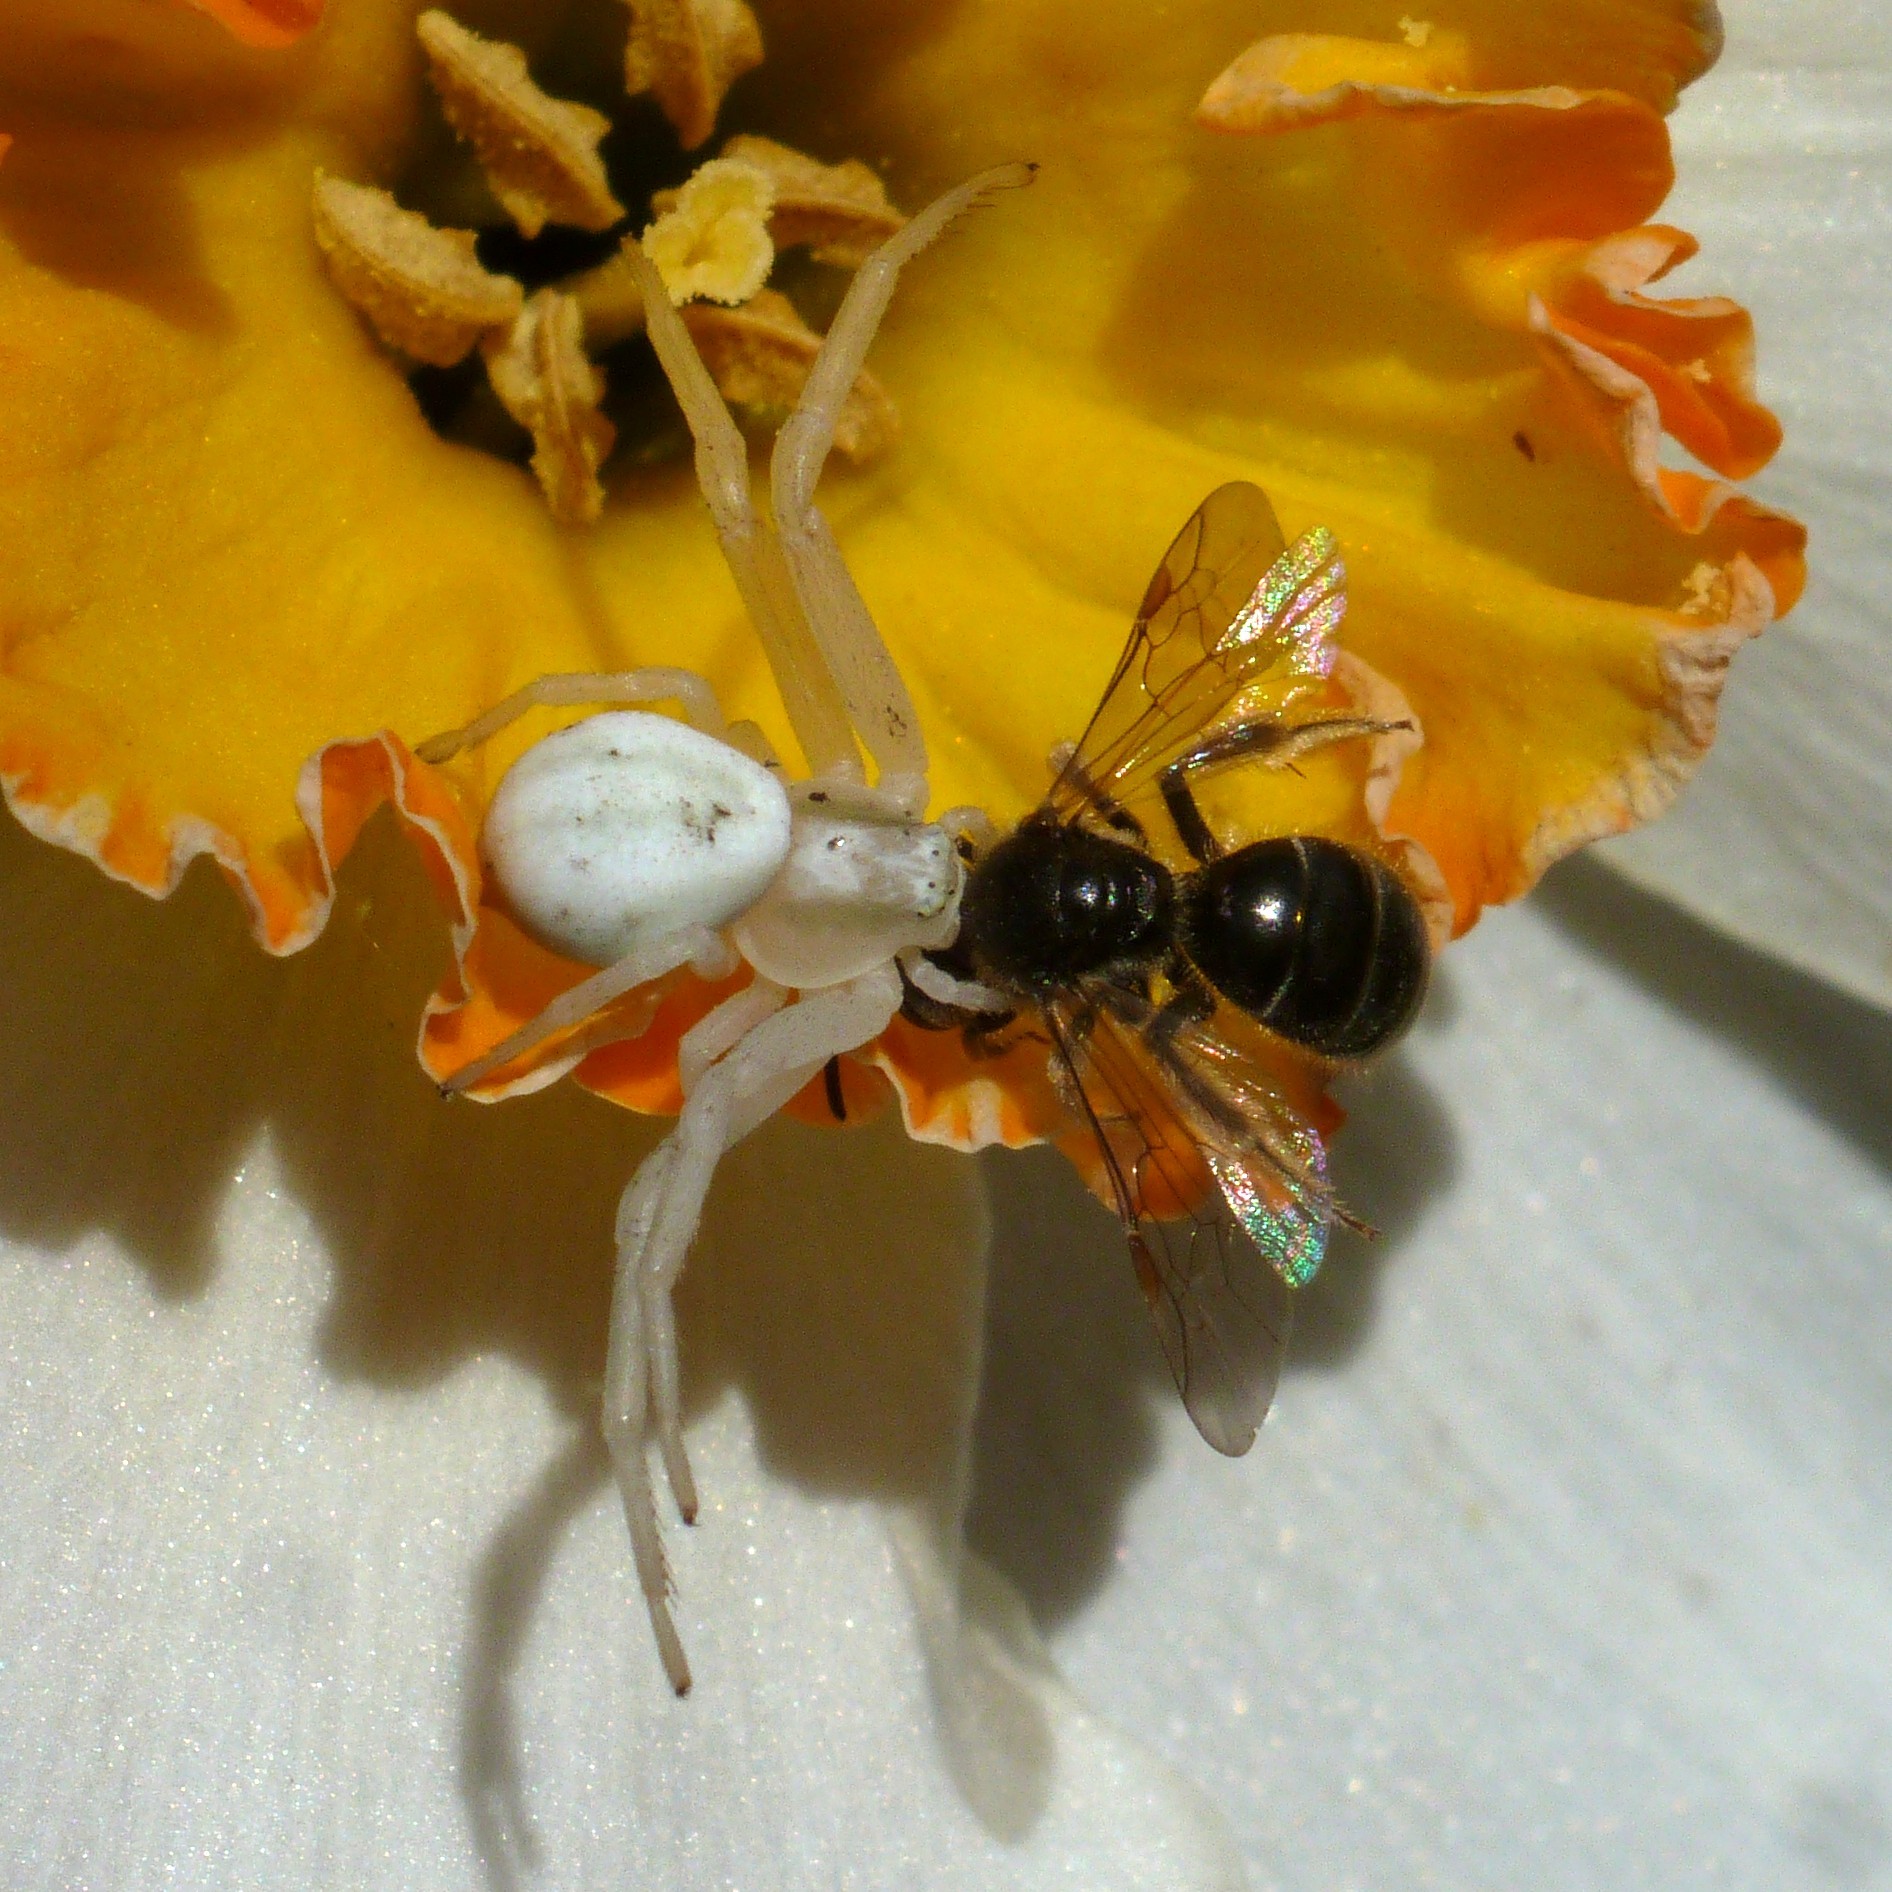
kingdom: Animalia
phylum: Arthropoda
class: Arachnida
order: Araneae
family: Thomisidae
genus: Misumena
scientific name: Misumena vatia
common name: Goldenrod crab spider
